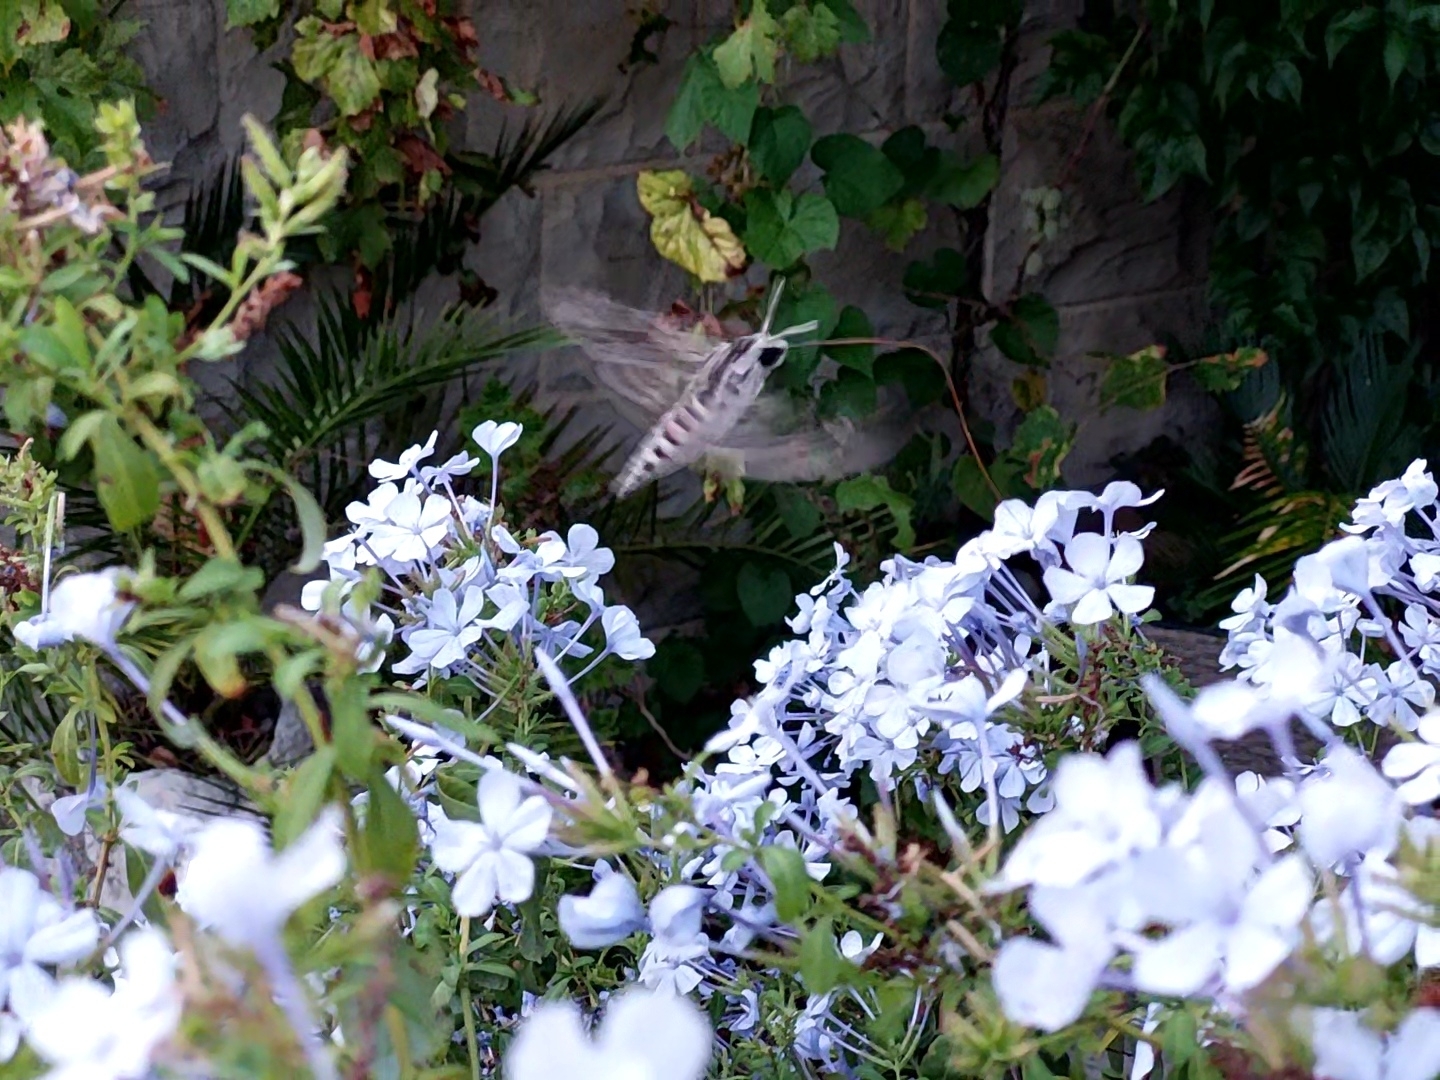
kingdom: Animalia
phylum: Arthropoda
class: Insecta
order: Lepidoptera
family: Sphingidae
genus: Agrius
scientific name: Agrius convolvuli
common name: Convolvulus hawkmoth
